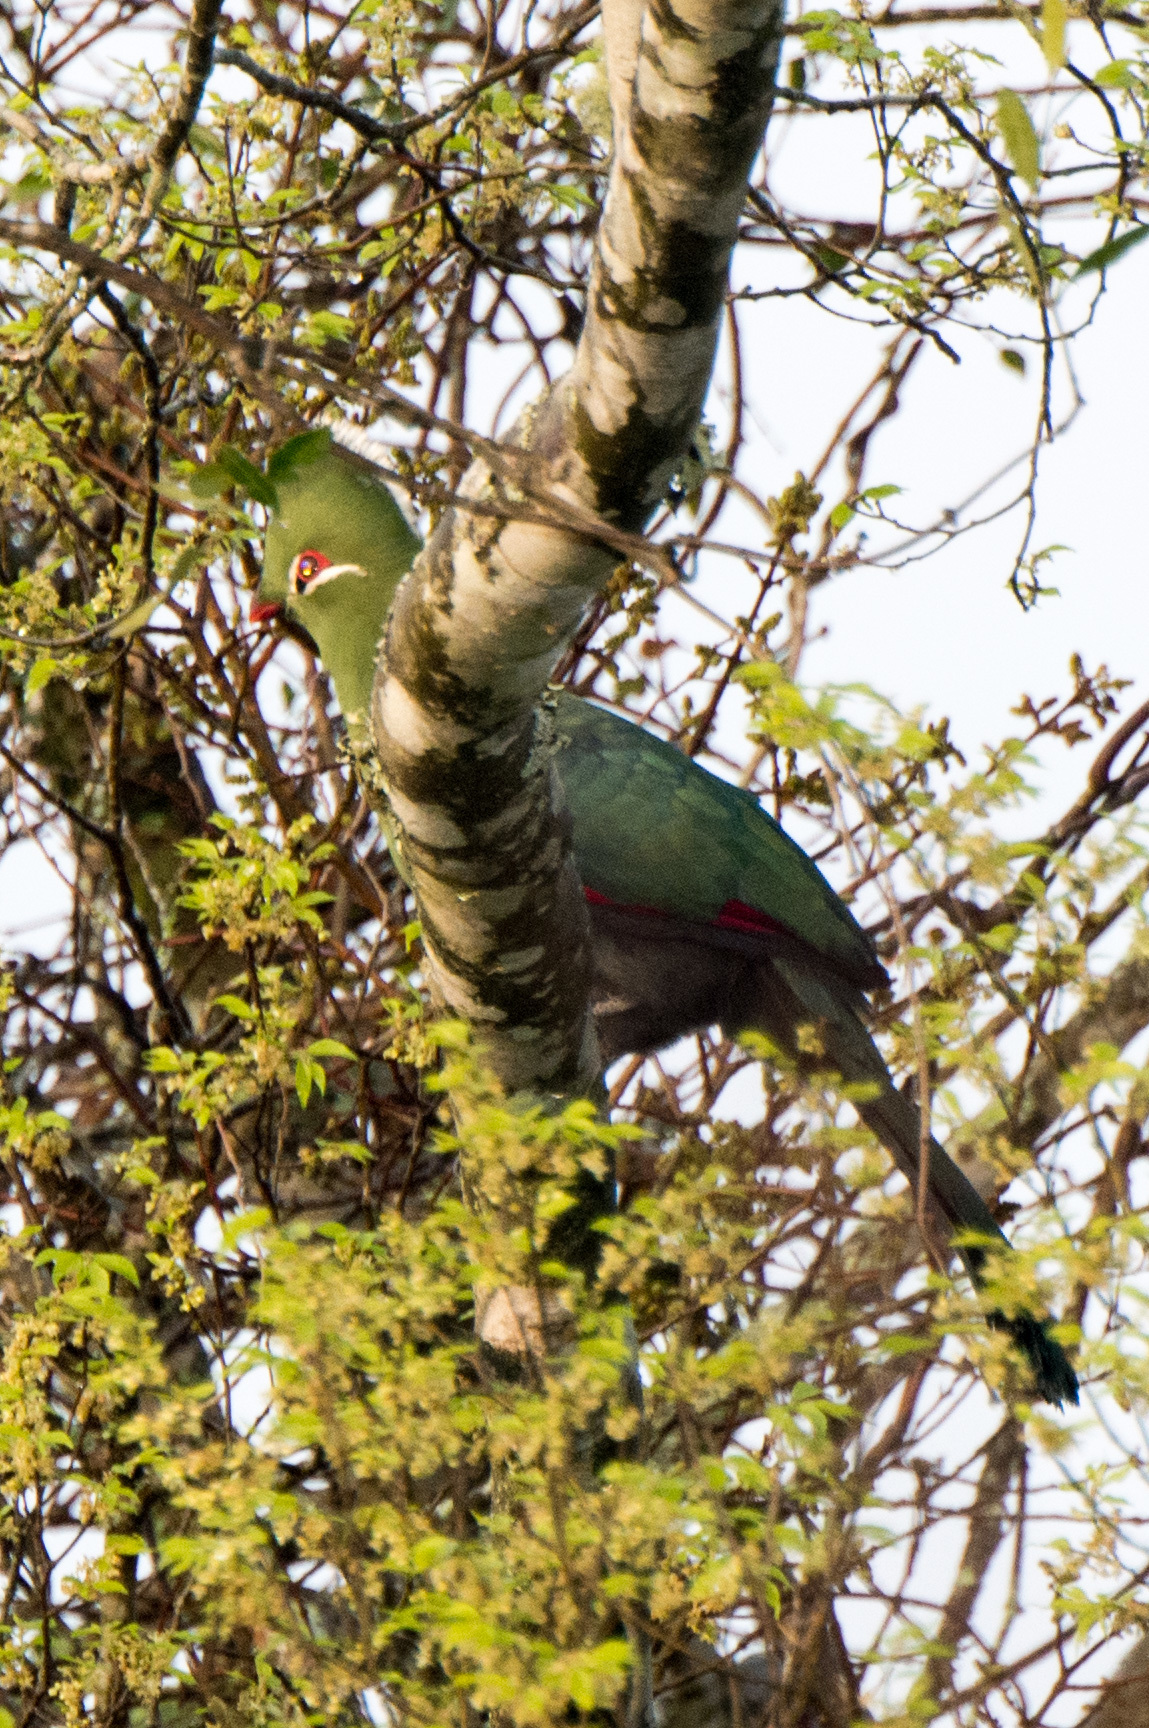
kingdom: Animalia
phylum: Chordata
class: Aves
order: Musophagiformes
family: Musophagidae
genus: Tauraco
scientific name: Tauraco corythaix
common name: Knysna turaco
